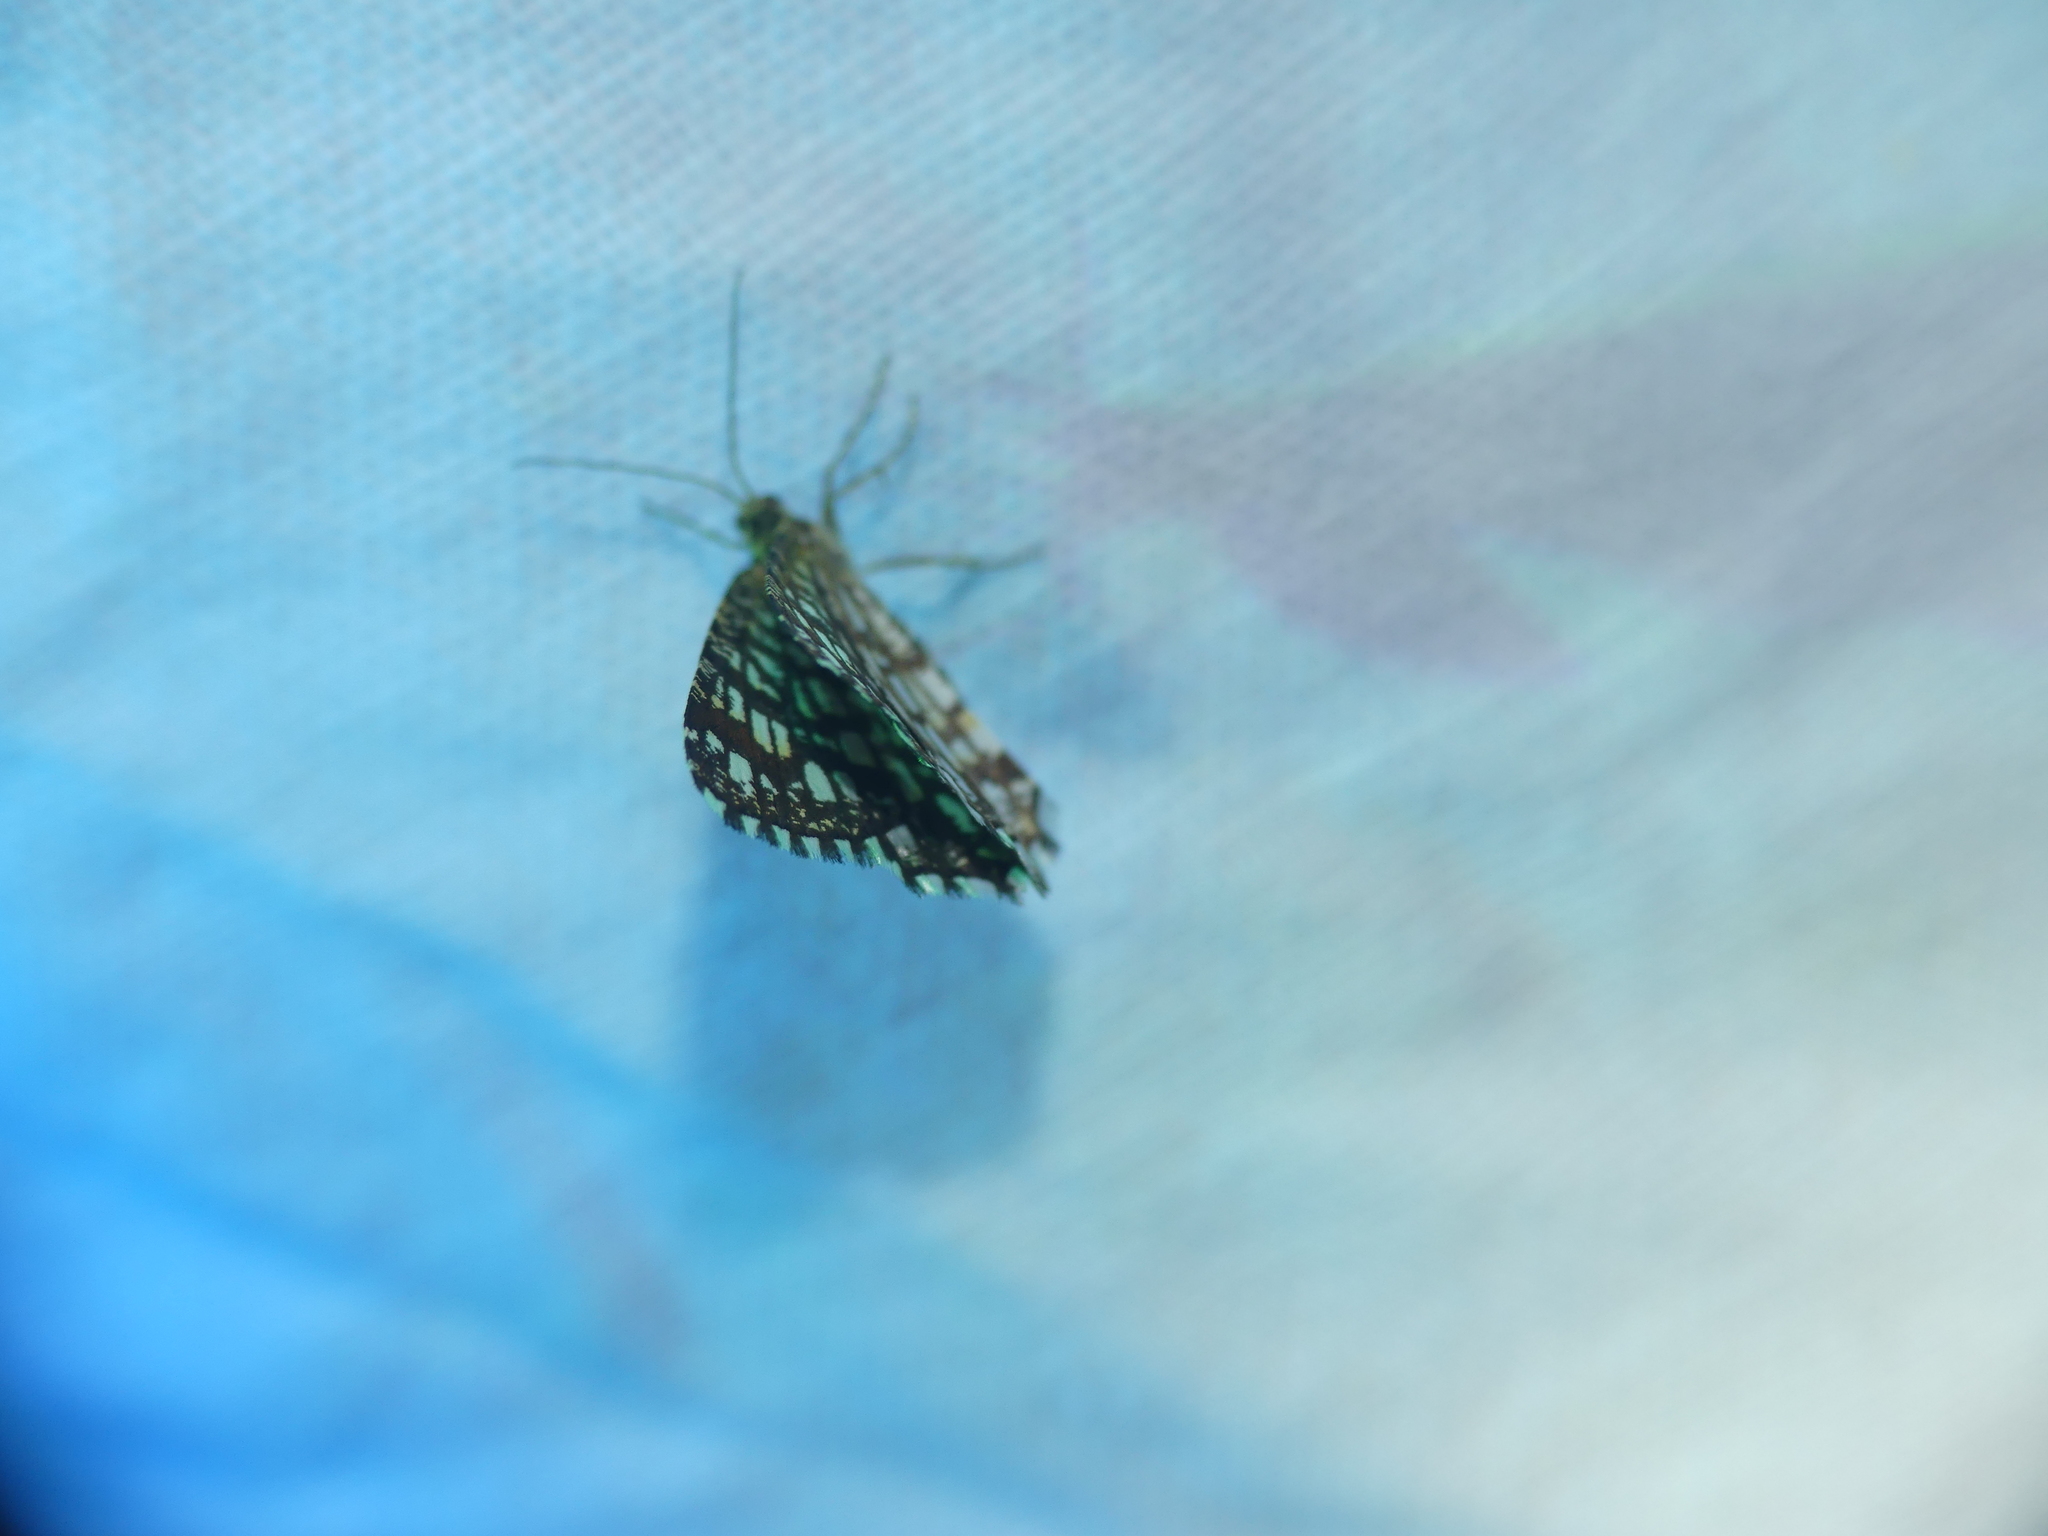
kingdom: Animalia
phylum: Arthropoda
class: Insecta
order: Lepidoptera
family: Geometridae
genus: Chiasmia
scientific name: Chiasmia clathrata
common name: Latticed heath
